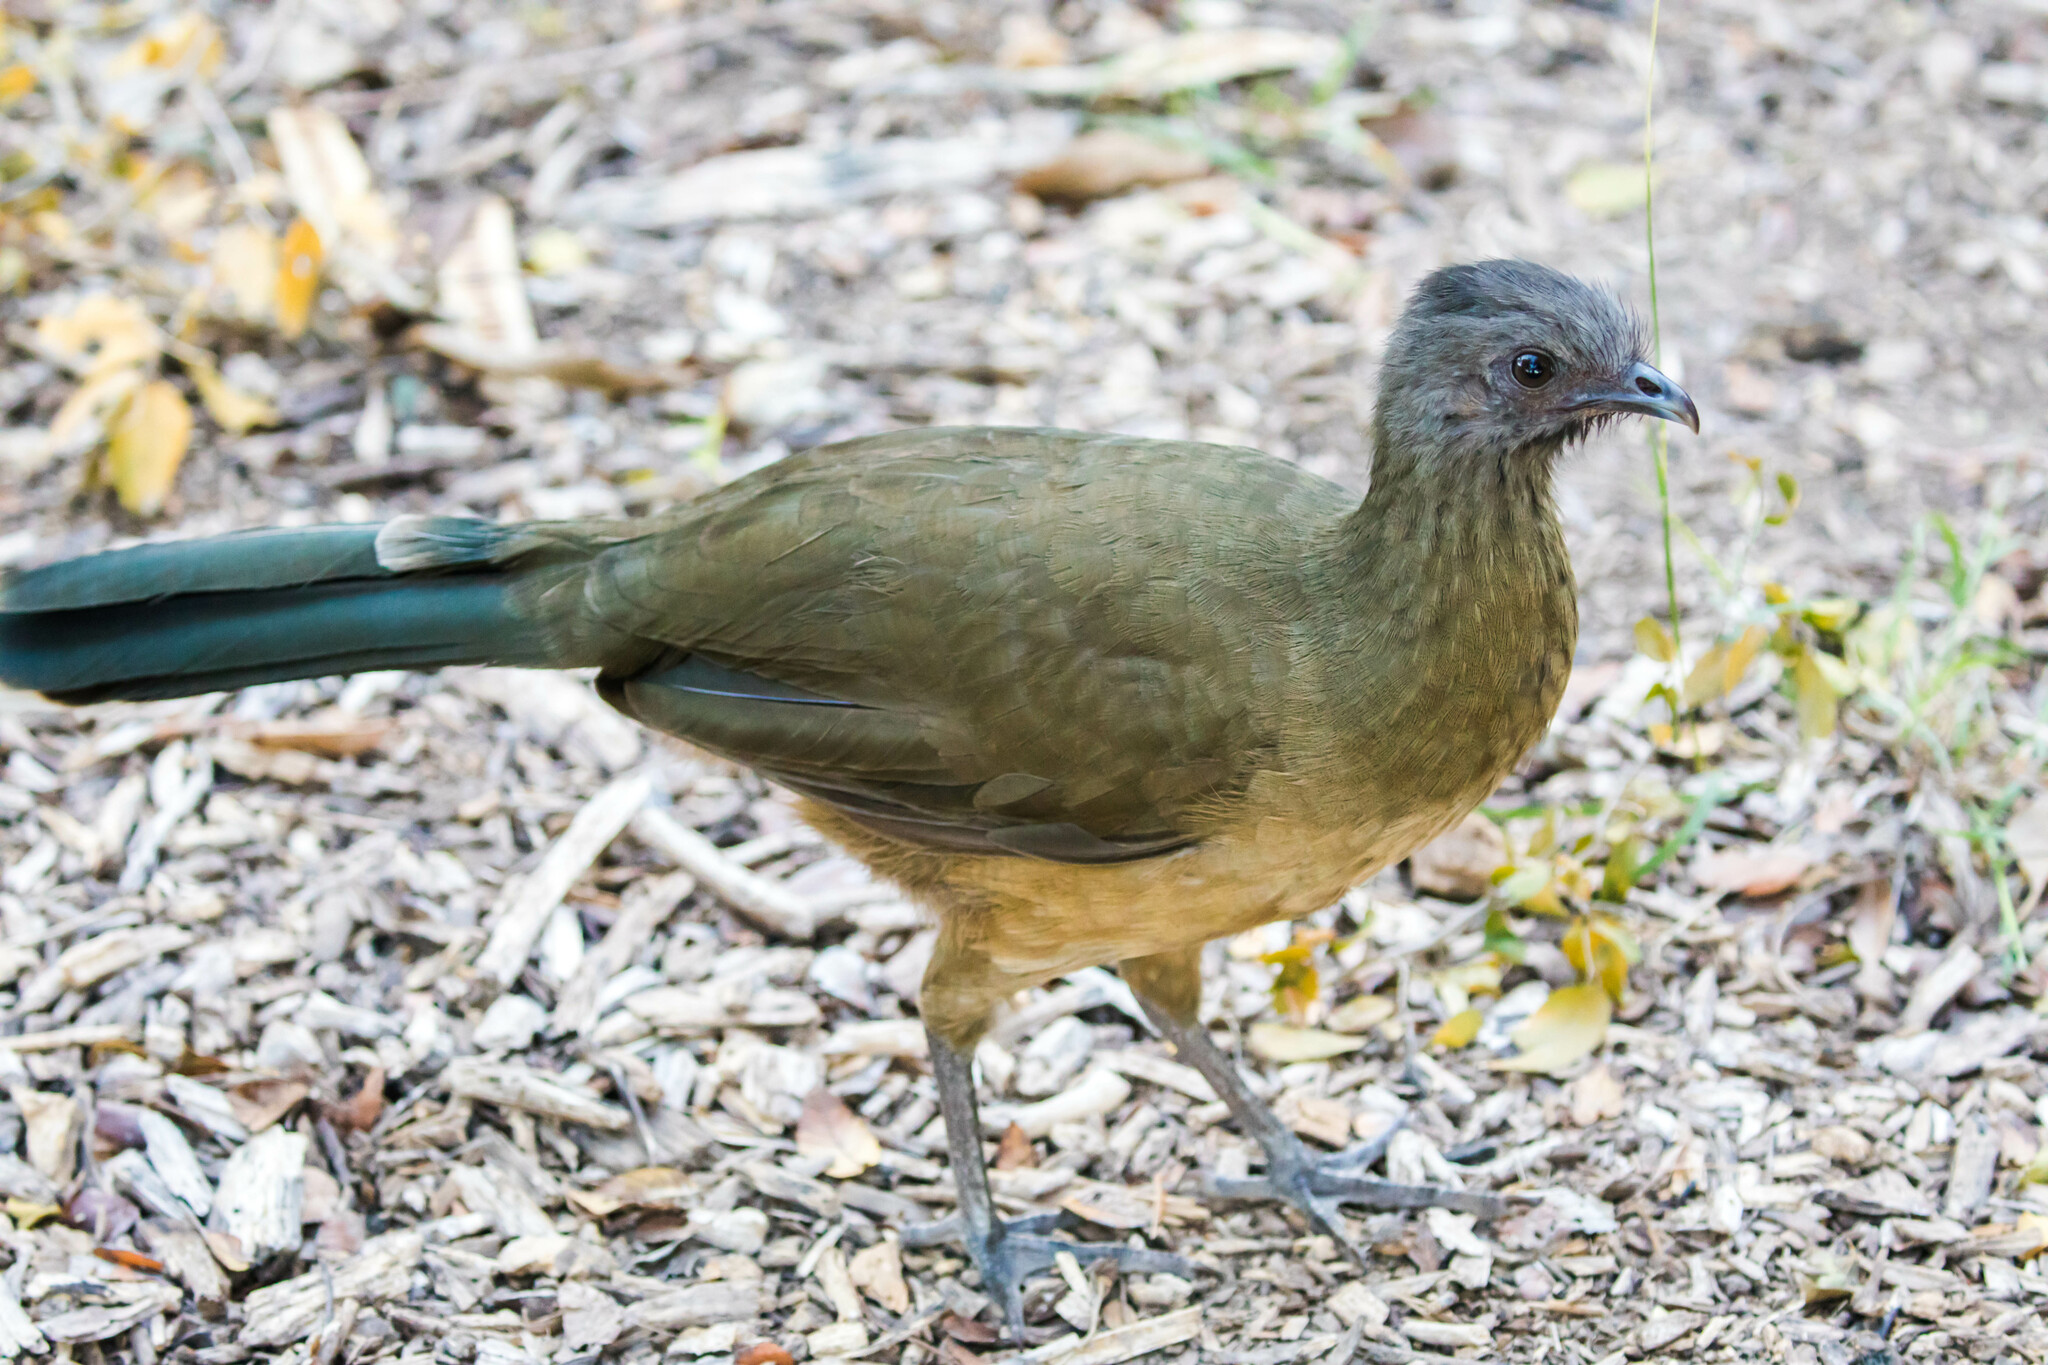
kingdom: Animalia
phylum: Chordata
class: Aves
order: Galliformes
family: Cracidae
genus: Ortalis
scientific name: Ortalis vetula
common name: Plain chachalaca
